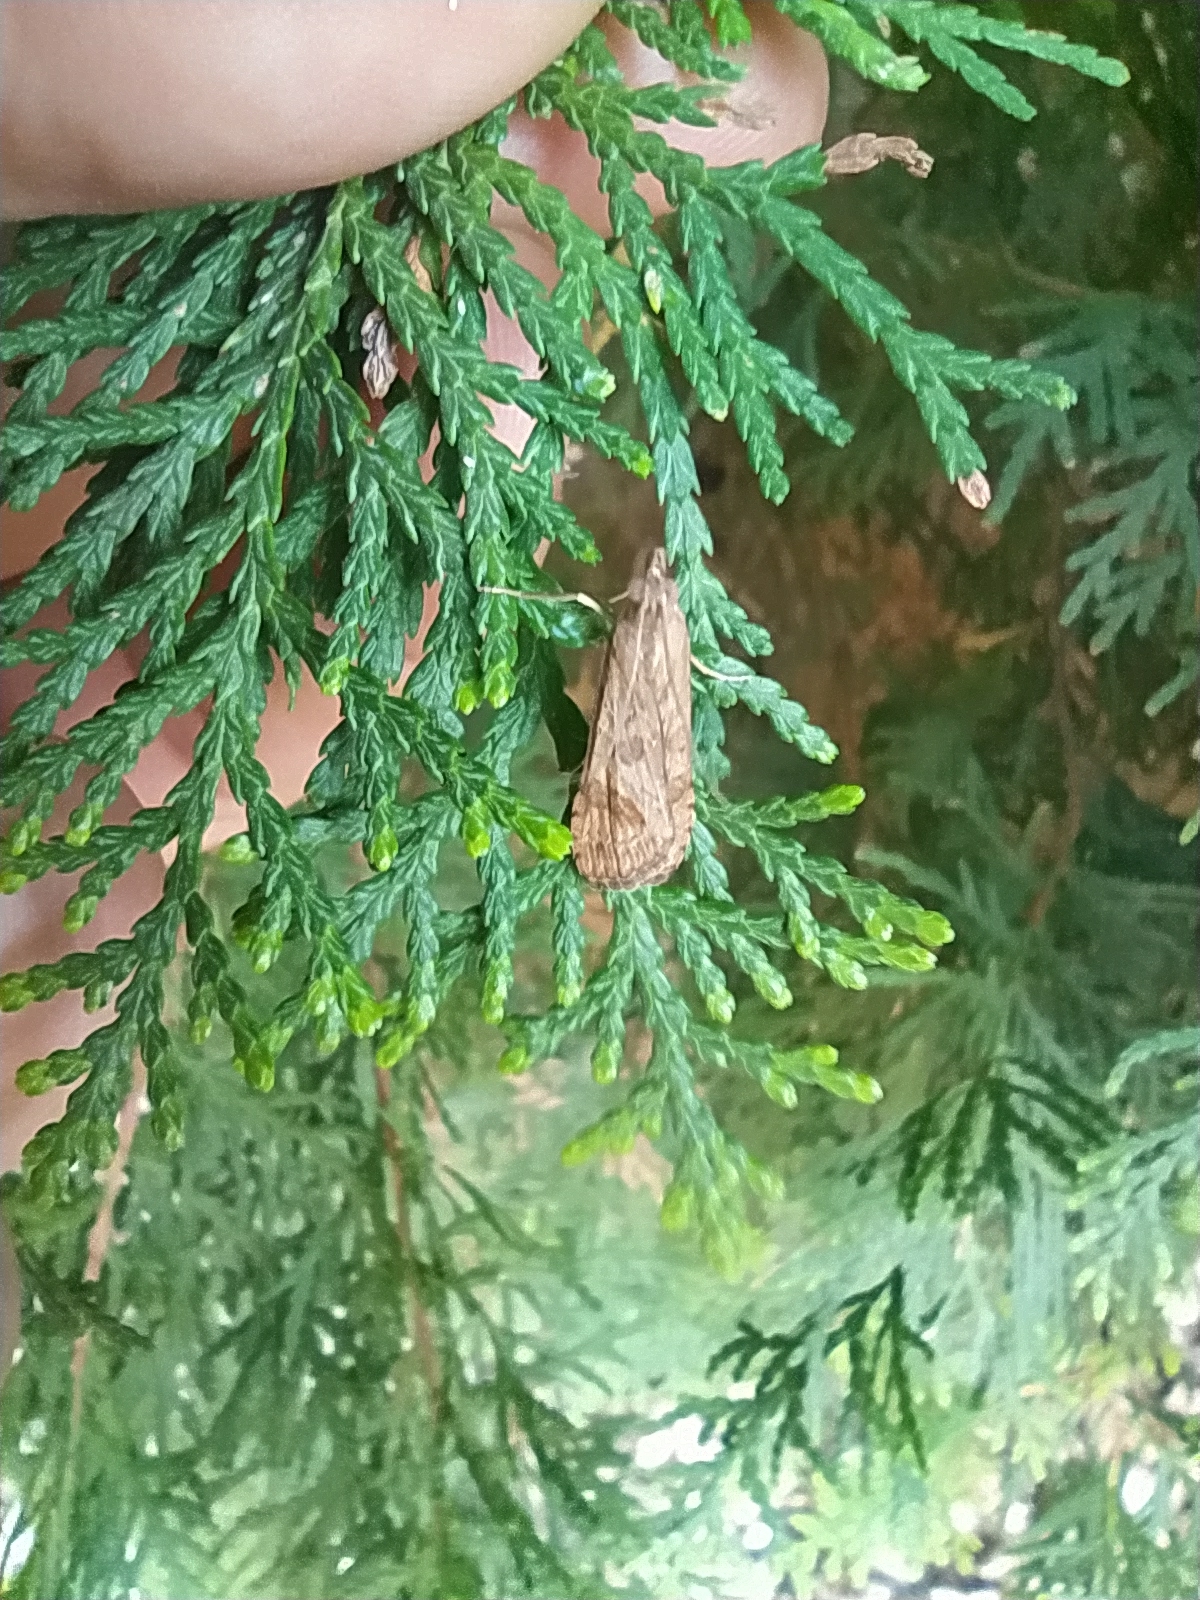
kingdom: Animalia
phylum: Arthropoda
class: Insecta
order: Lepidoptera
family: Crambidae
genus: Nomophila
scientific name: Nomophila noctuella
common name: Rush veneer
